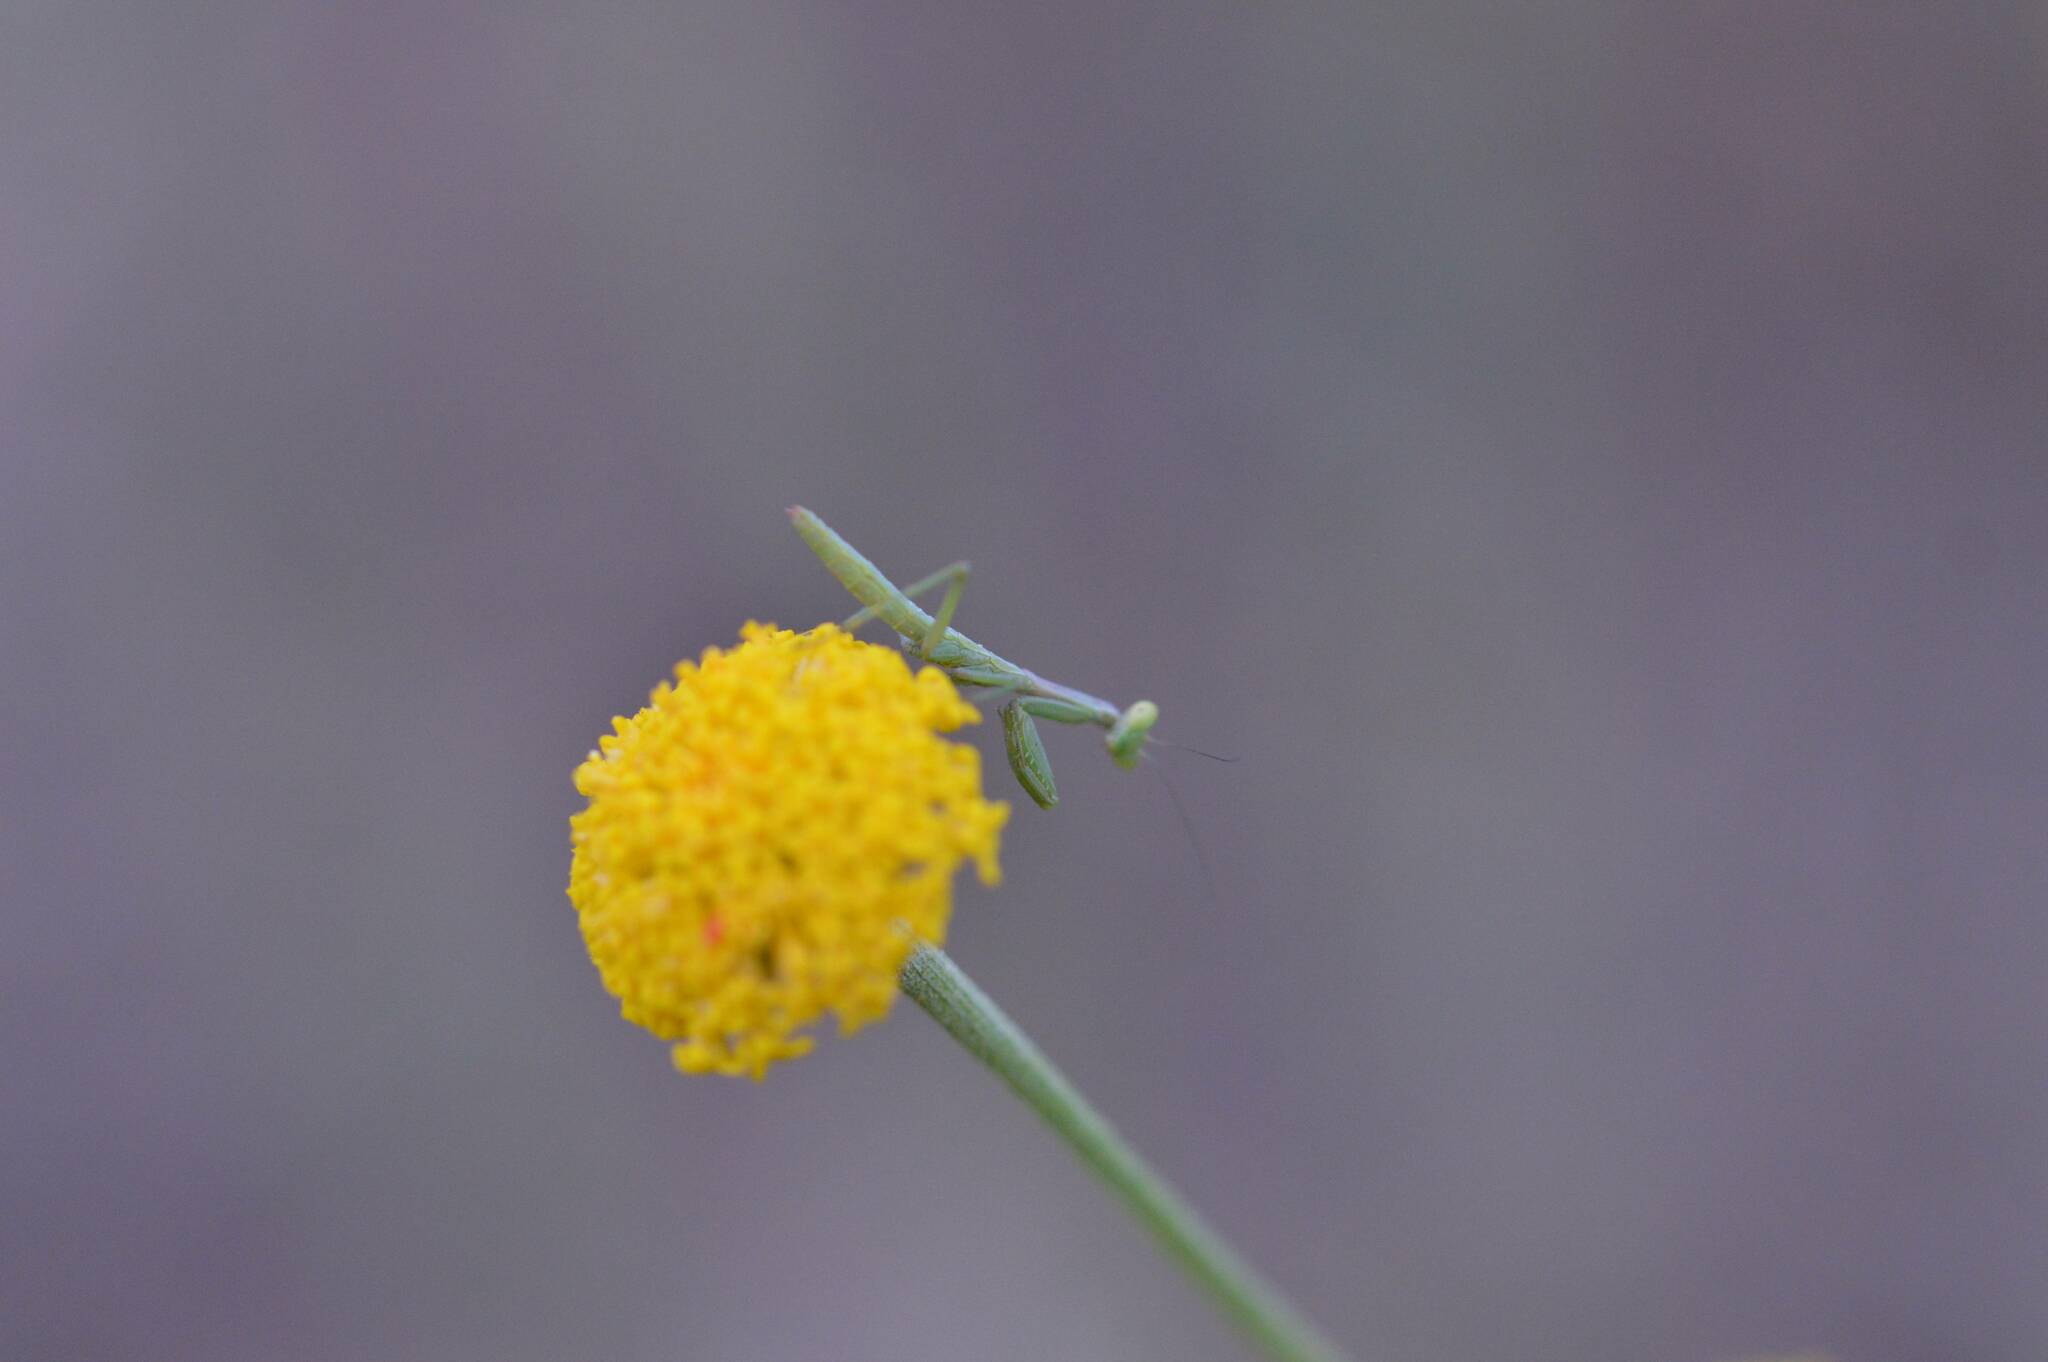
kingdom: Animalia
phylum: Arthropoda
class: Insecta
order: Mantodea
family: Eremiaphilidae
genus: Iris
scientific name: Iris oratoria
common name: Mediterranean mantis
